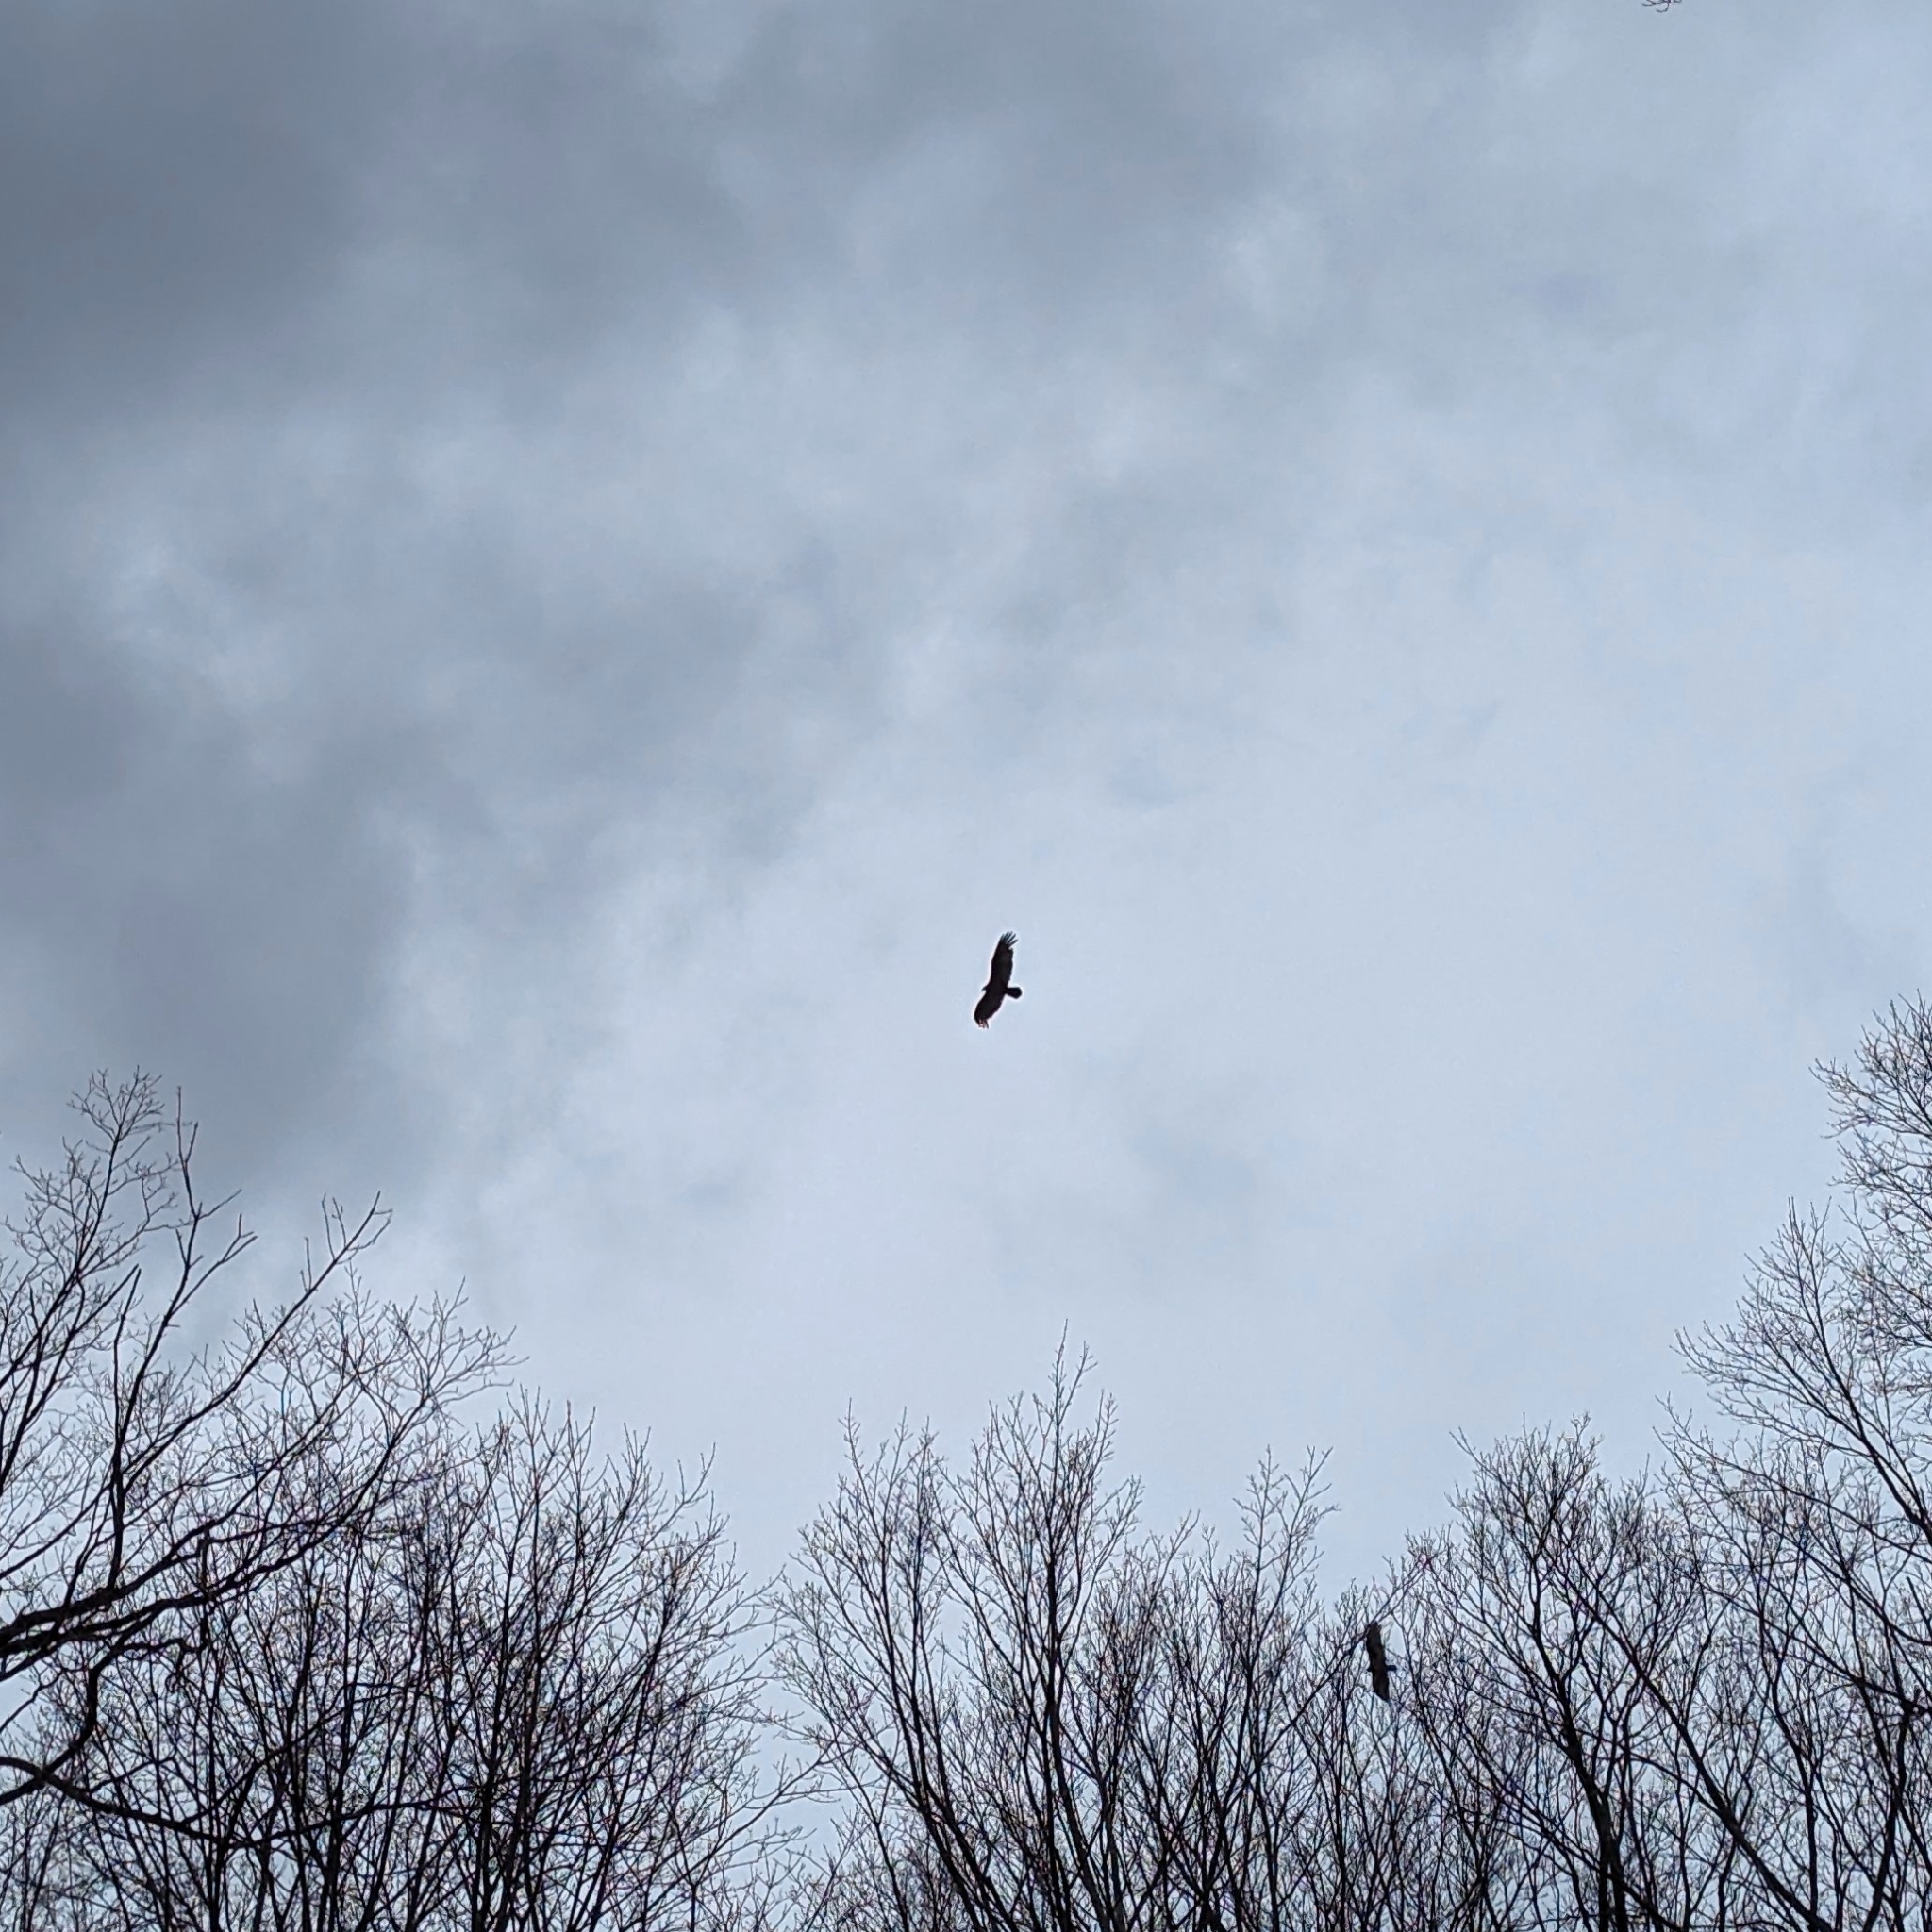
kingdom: Animalia
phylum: Chordata
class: Aves
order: Accipitriformes
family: Cathartidae
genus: Cathartes
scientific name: Cathartes aura
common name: Turkey vulture
